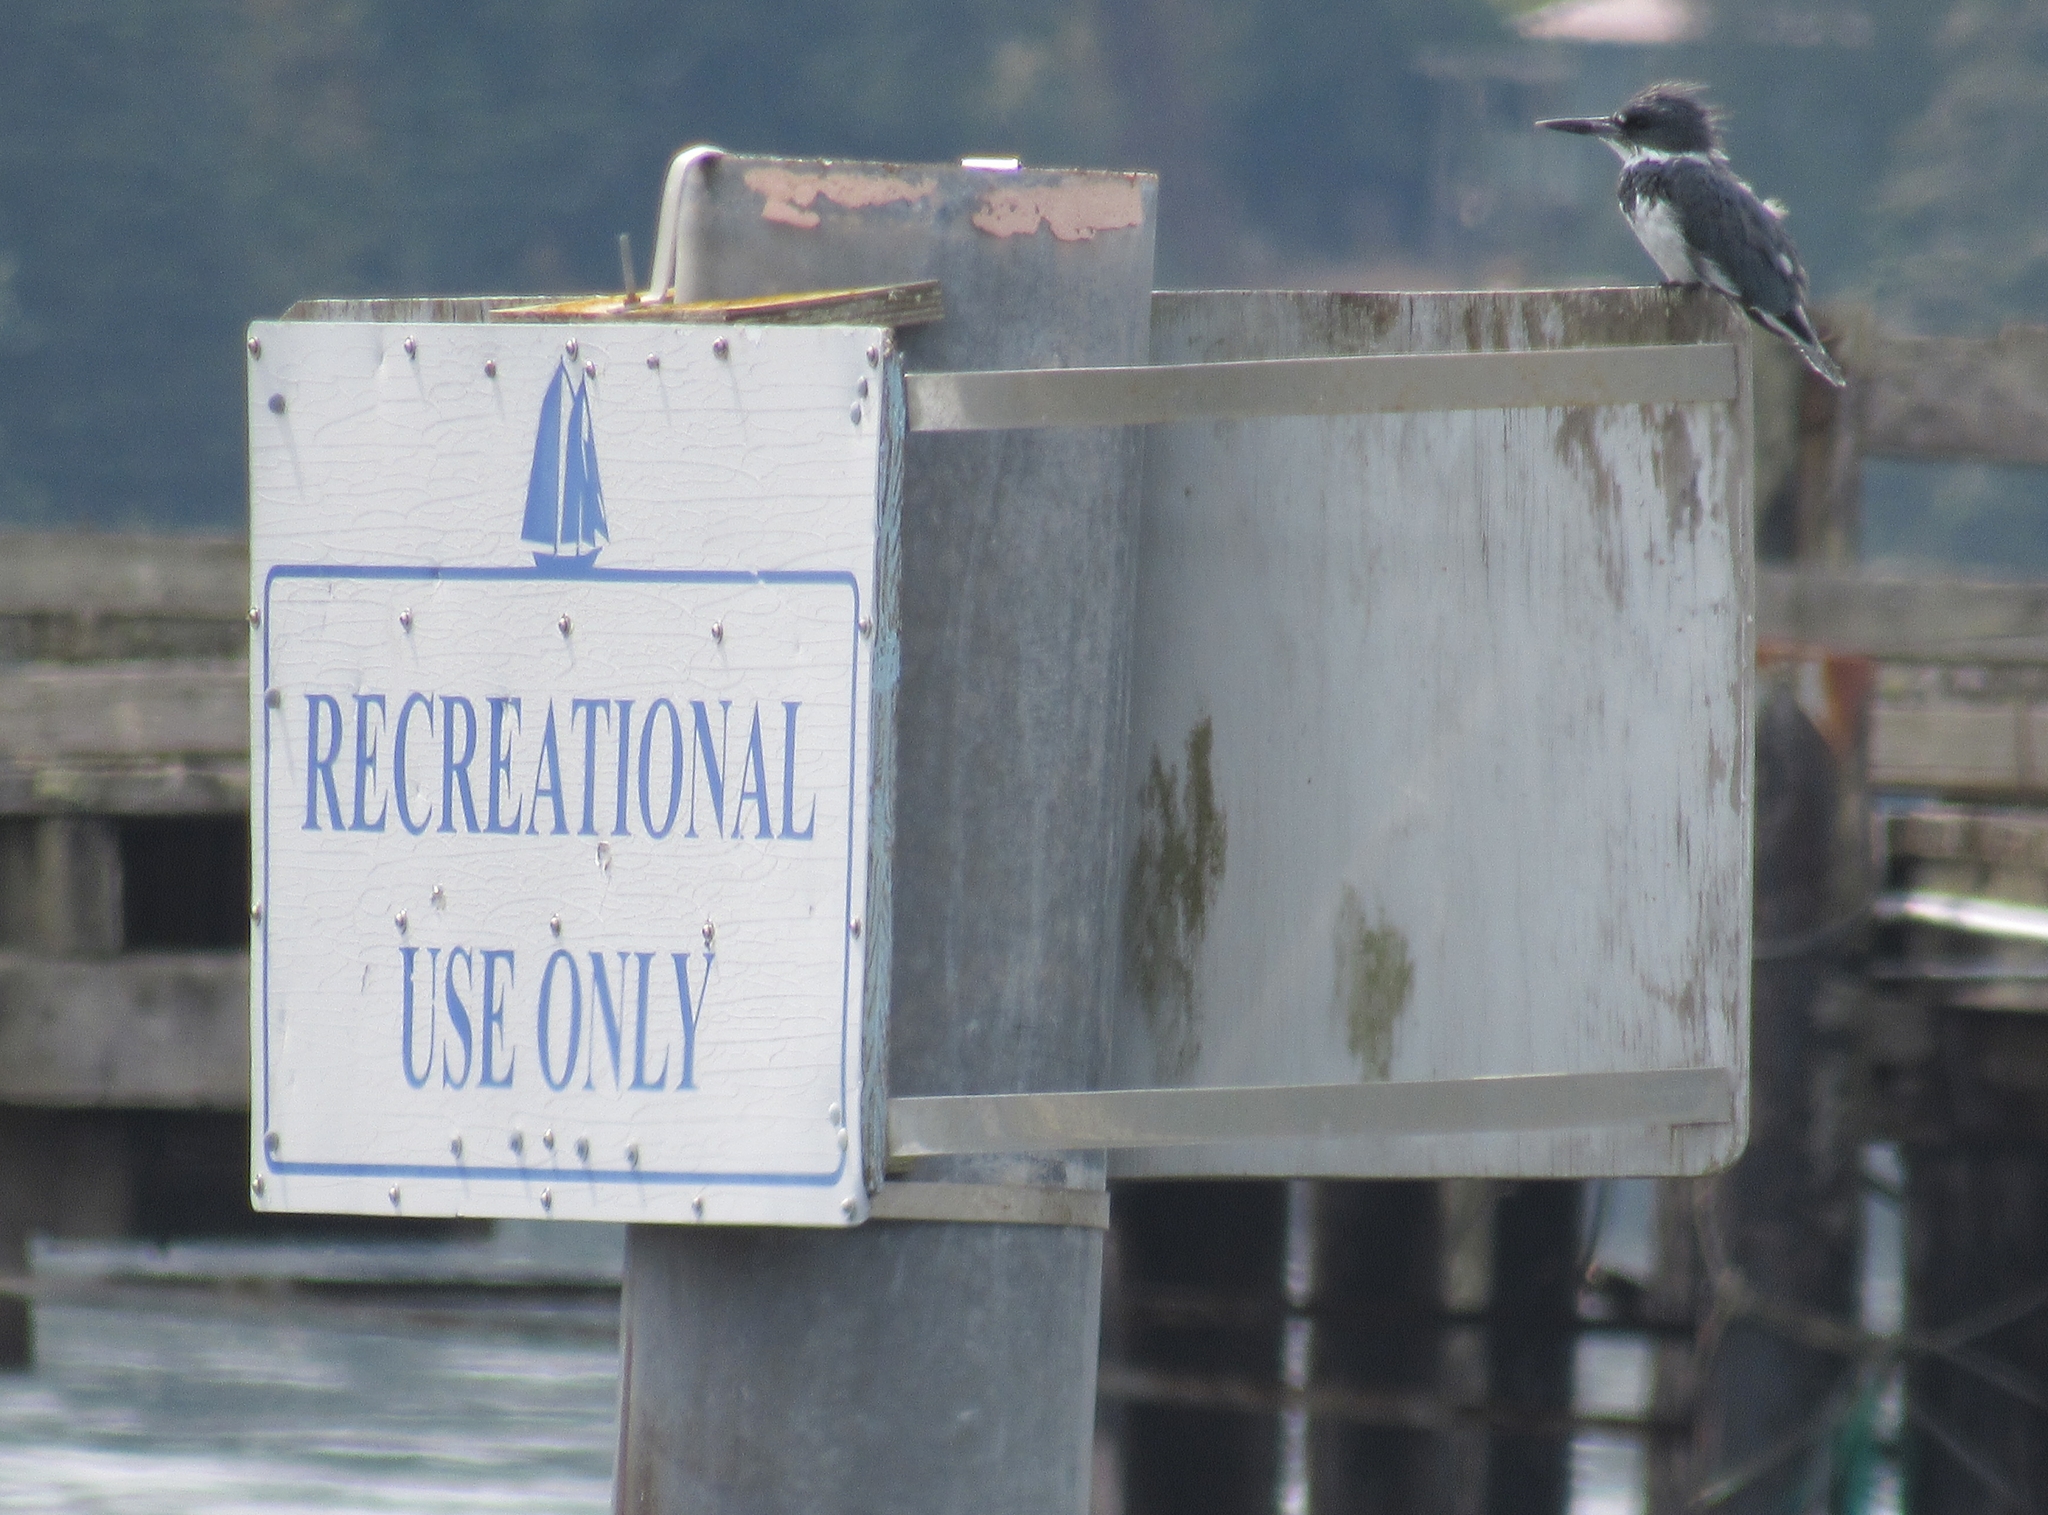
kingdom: Animalia
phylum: Chordata
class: Aves
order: Coraciiformes
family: Alcedinidae
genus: Megaceryle
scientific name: Megaceryle alcyon
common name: Belted kingfisher
